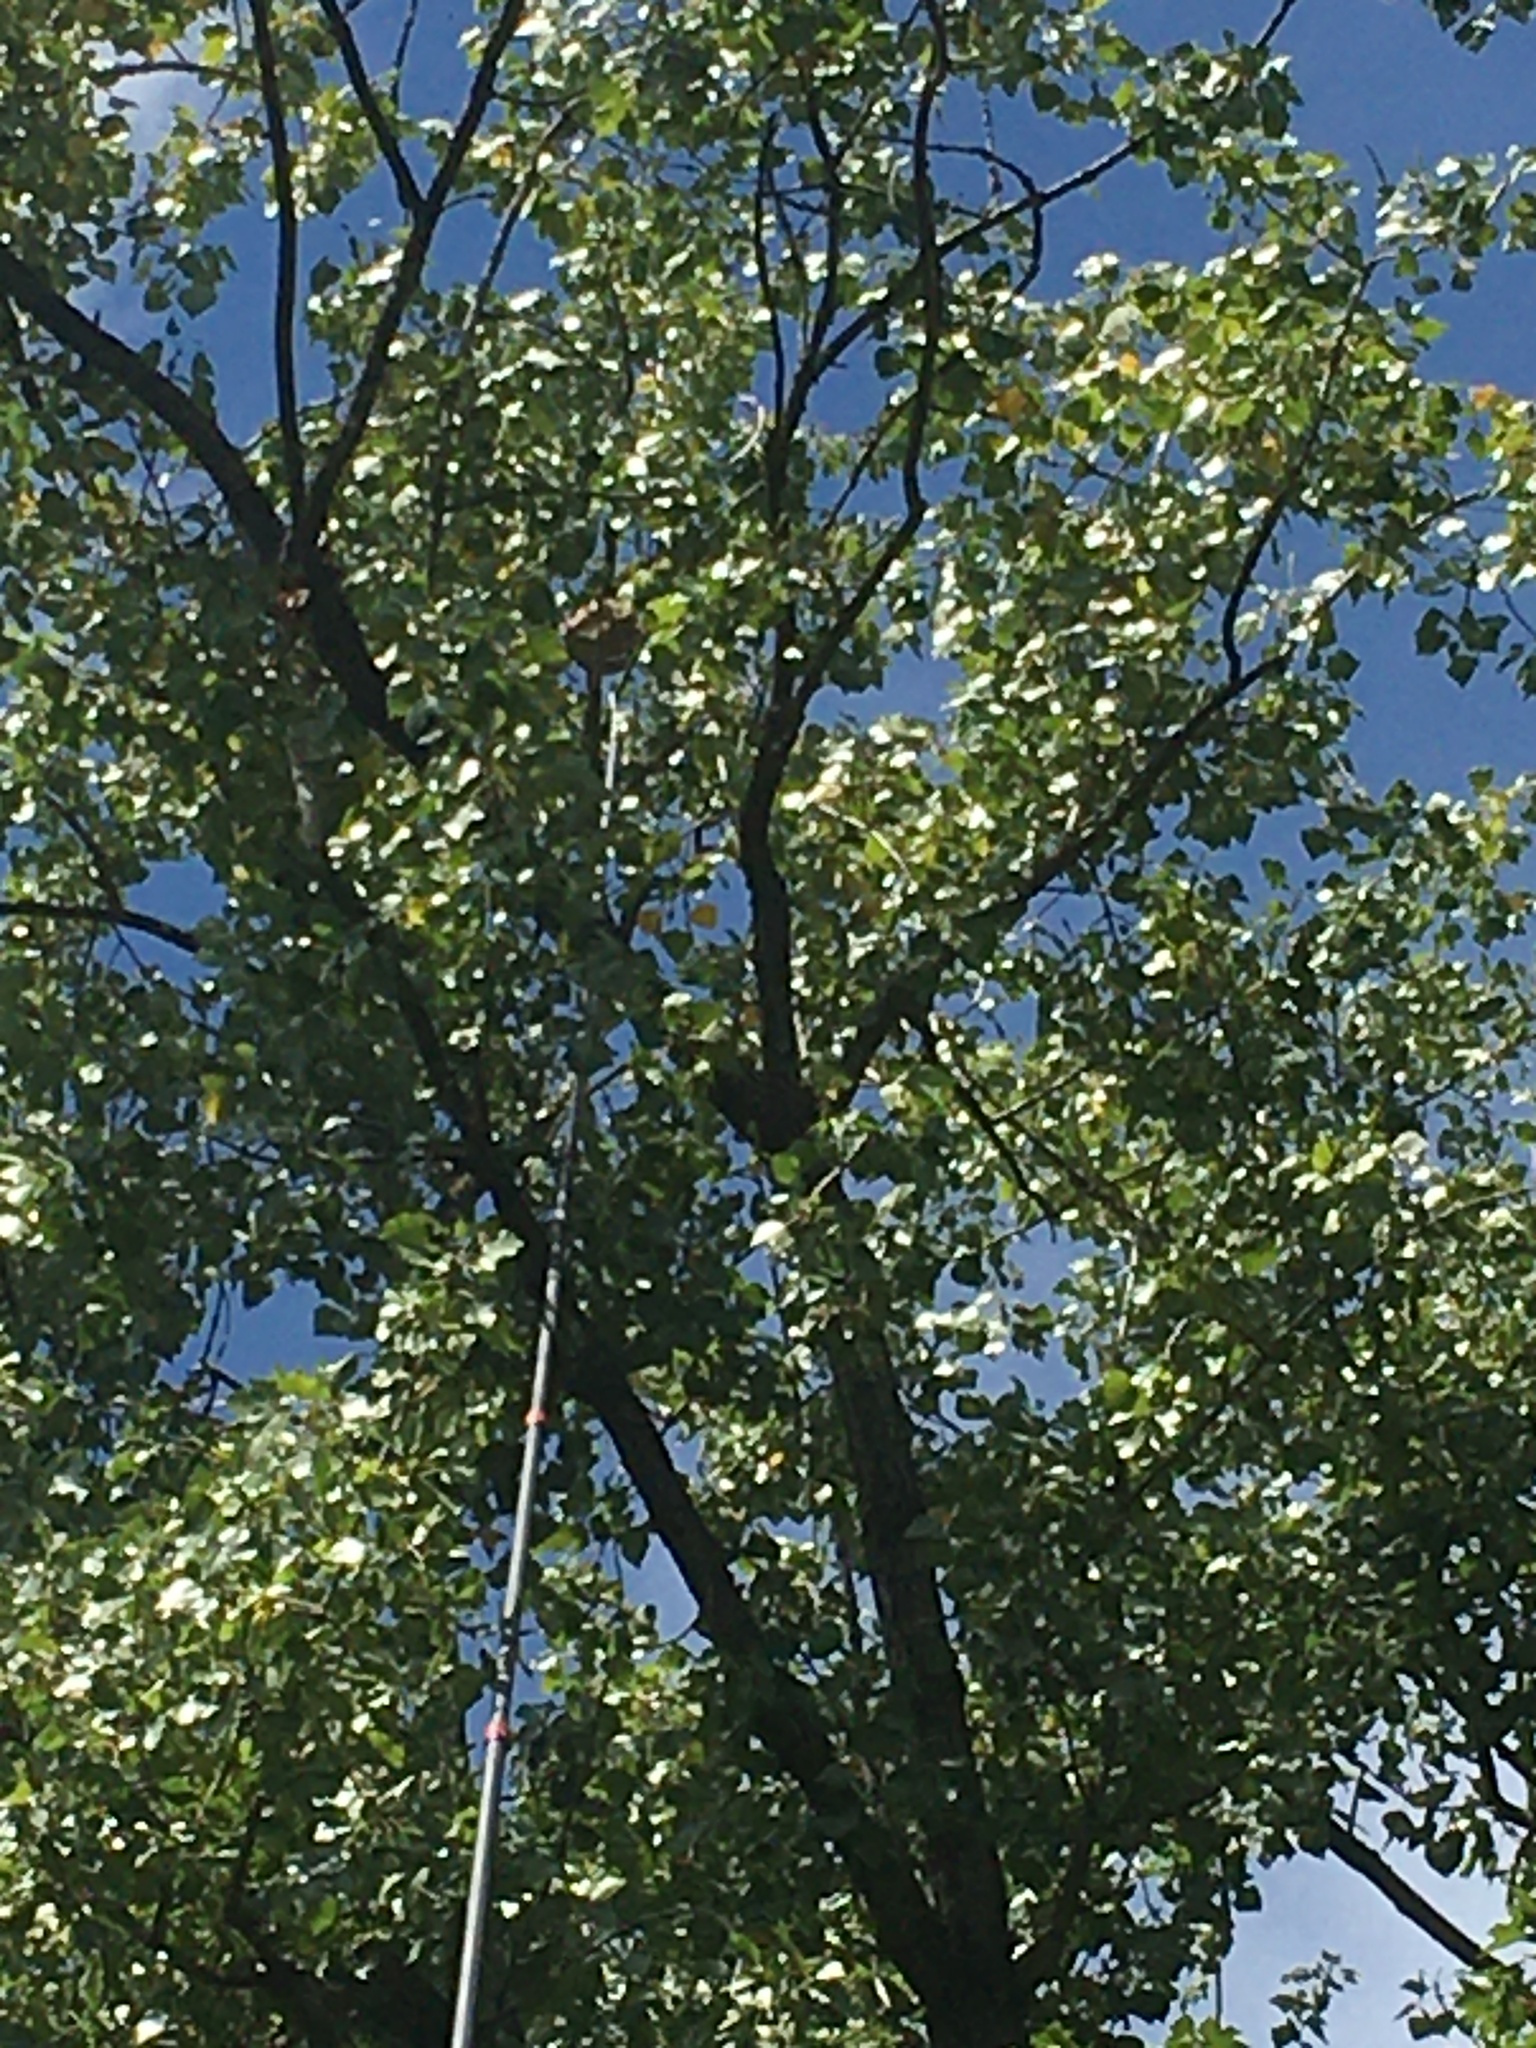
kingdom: Animalia
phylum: Arthropoda
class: Insecta
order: Hymenoptera
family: Vespidae
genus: Vespa
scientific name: Vespa velutina
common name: Asian hornet
